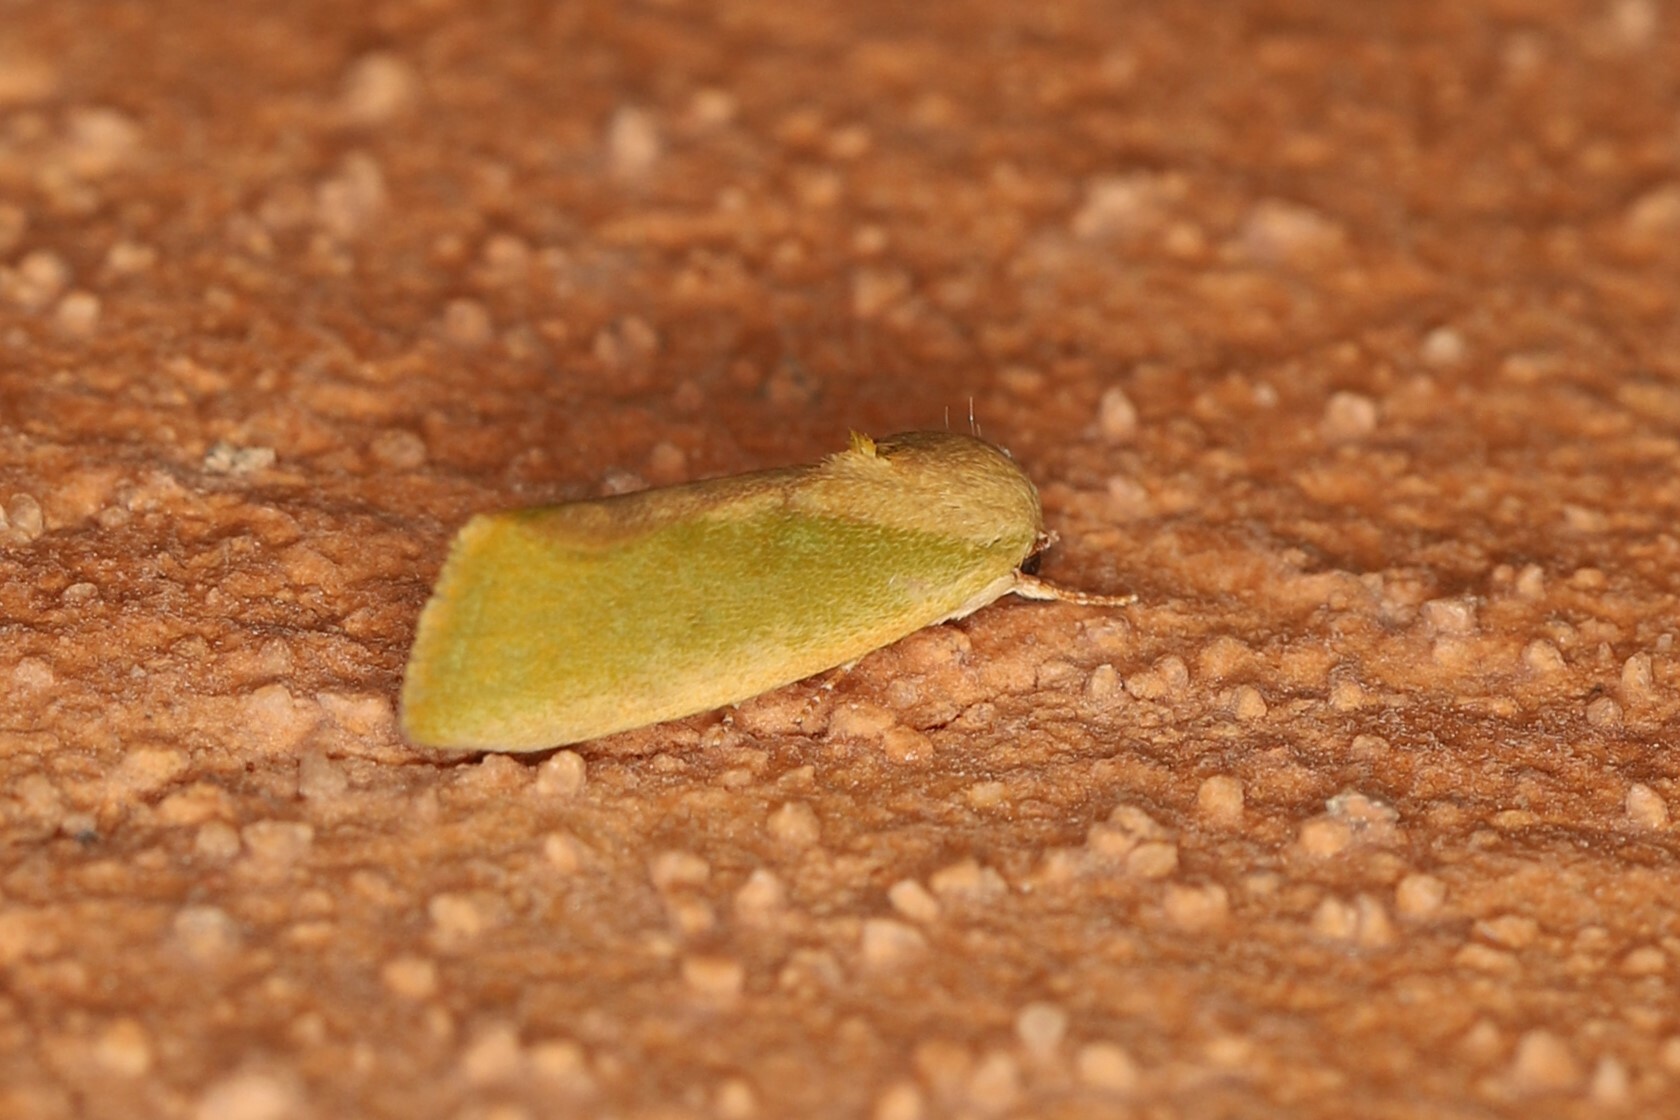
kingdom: Animalia
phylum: Arthropoda
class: Insecta
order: Lepidoptera
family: Nolidae
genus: Earias
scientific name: Earias insulana
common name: Egyptian bollworm
